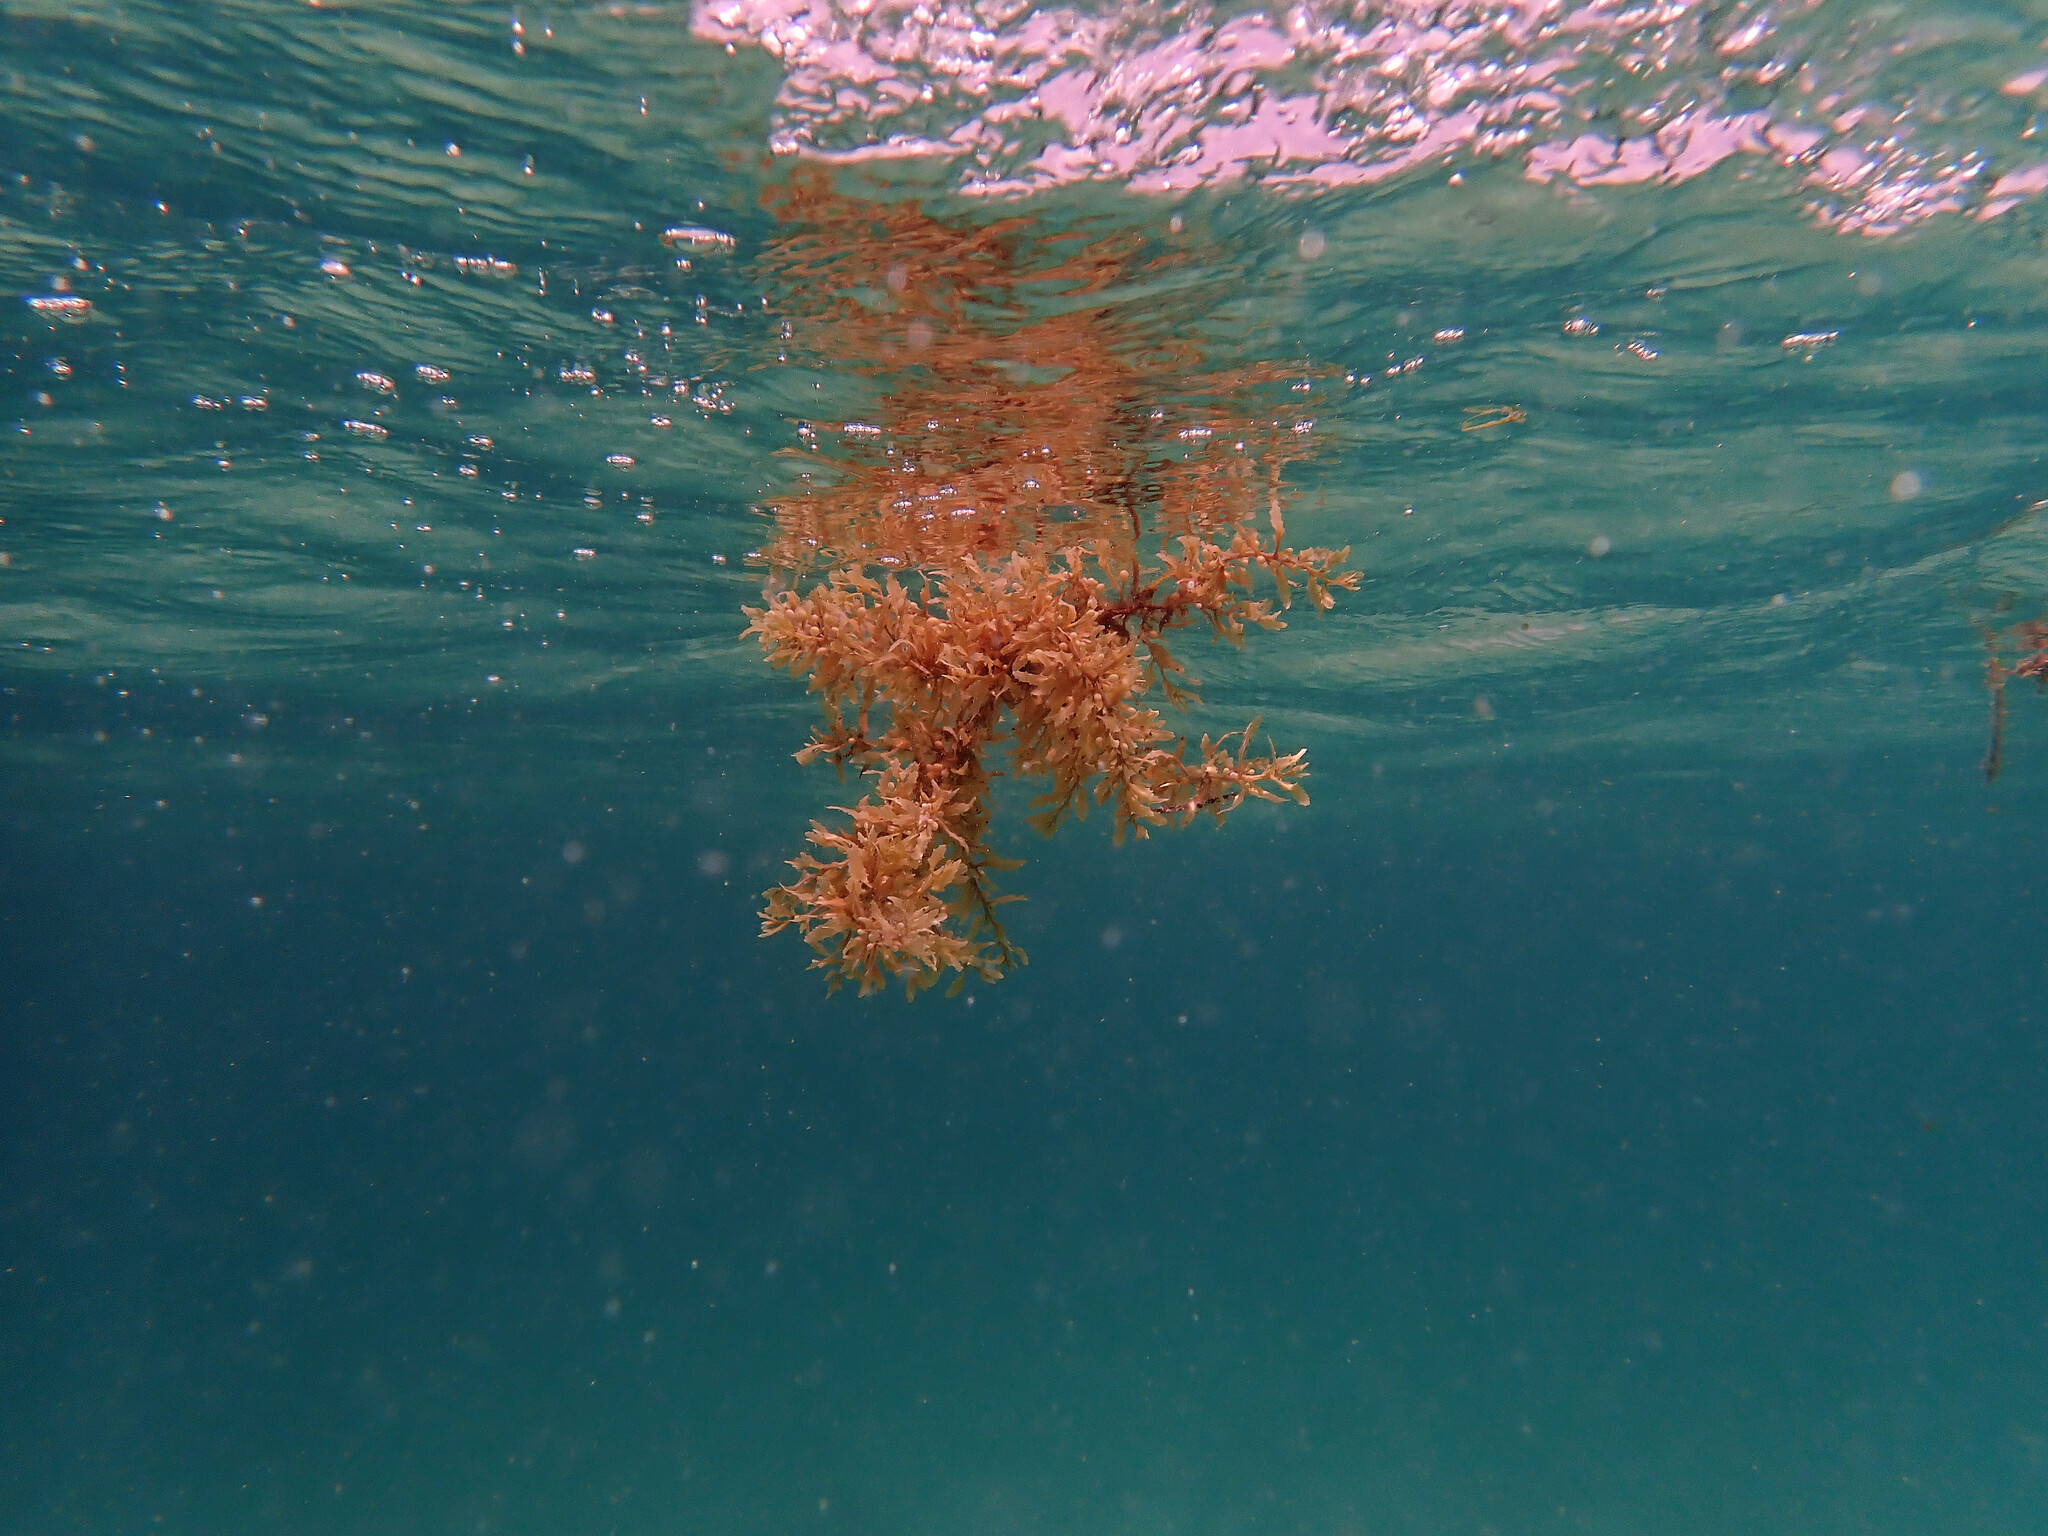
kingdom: Chromista
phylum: Ochrophyta
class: Phaeophyceae
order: Fucales
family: Sargassaceae
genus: Sargassum
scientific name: Sargassum fluitans
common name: Sargassum seaweed
